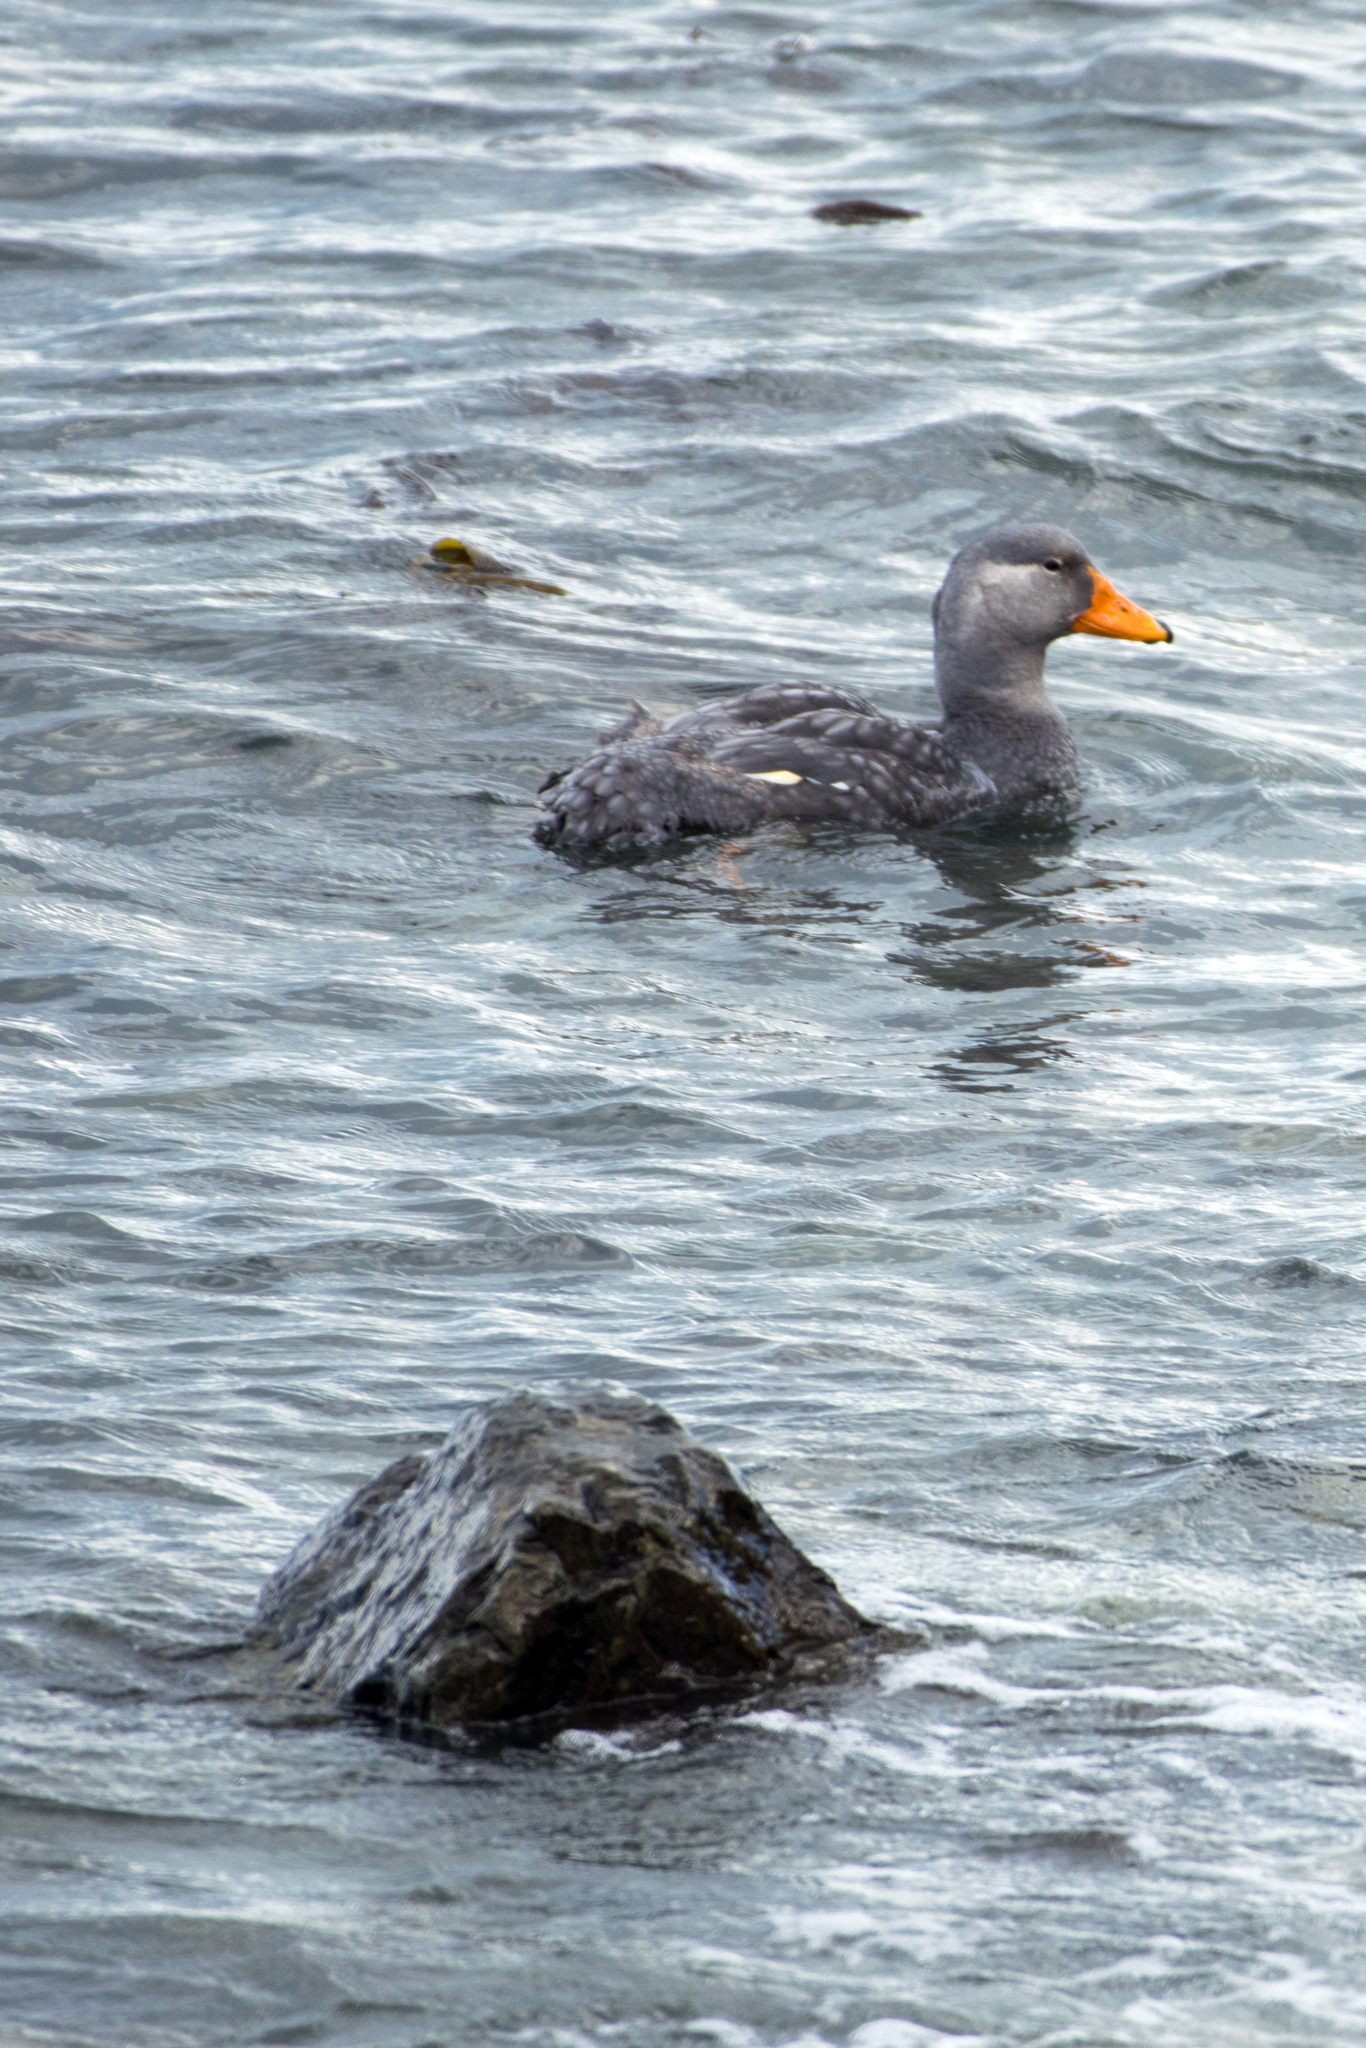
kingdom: Animalia
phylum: Chordata
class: Aves
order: Anseriformes
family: Anatidae
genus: Tachyeres
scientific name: Tachyeres pteneres
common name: Fuegian steamer duck
